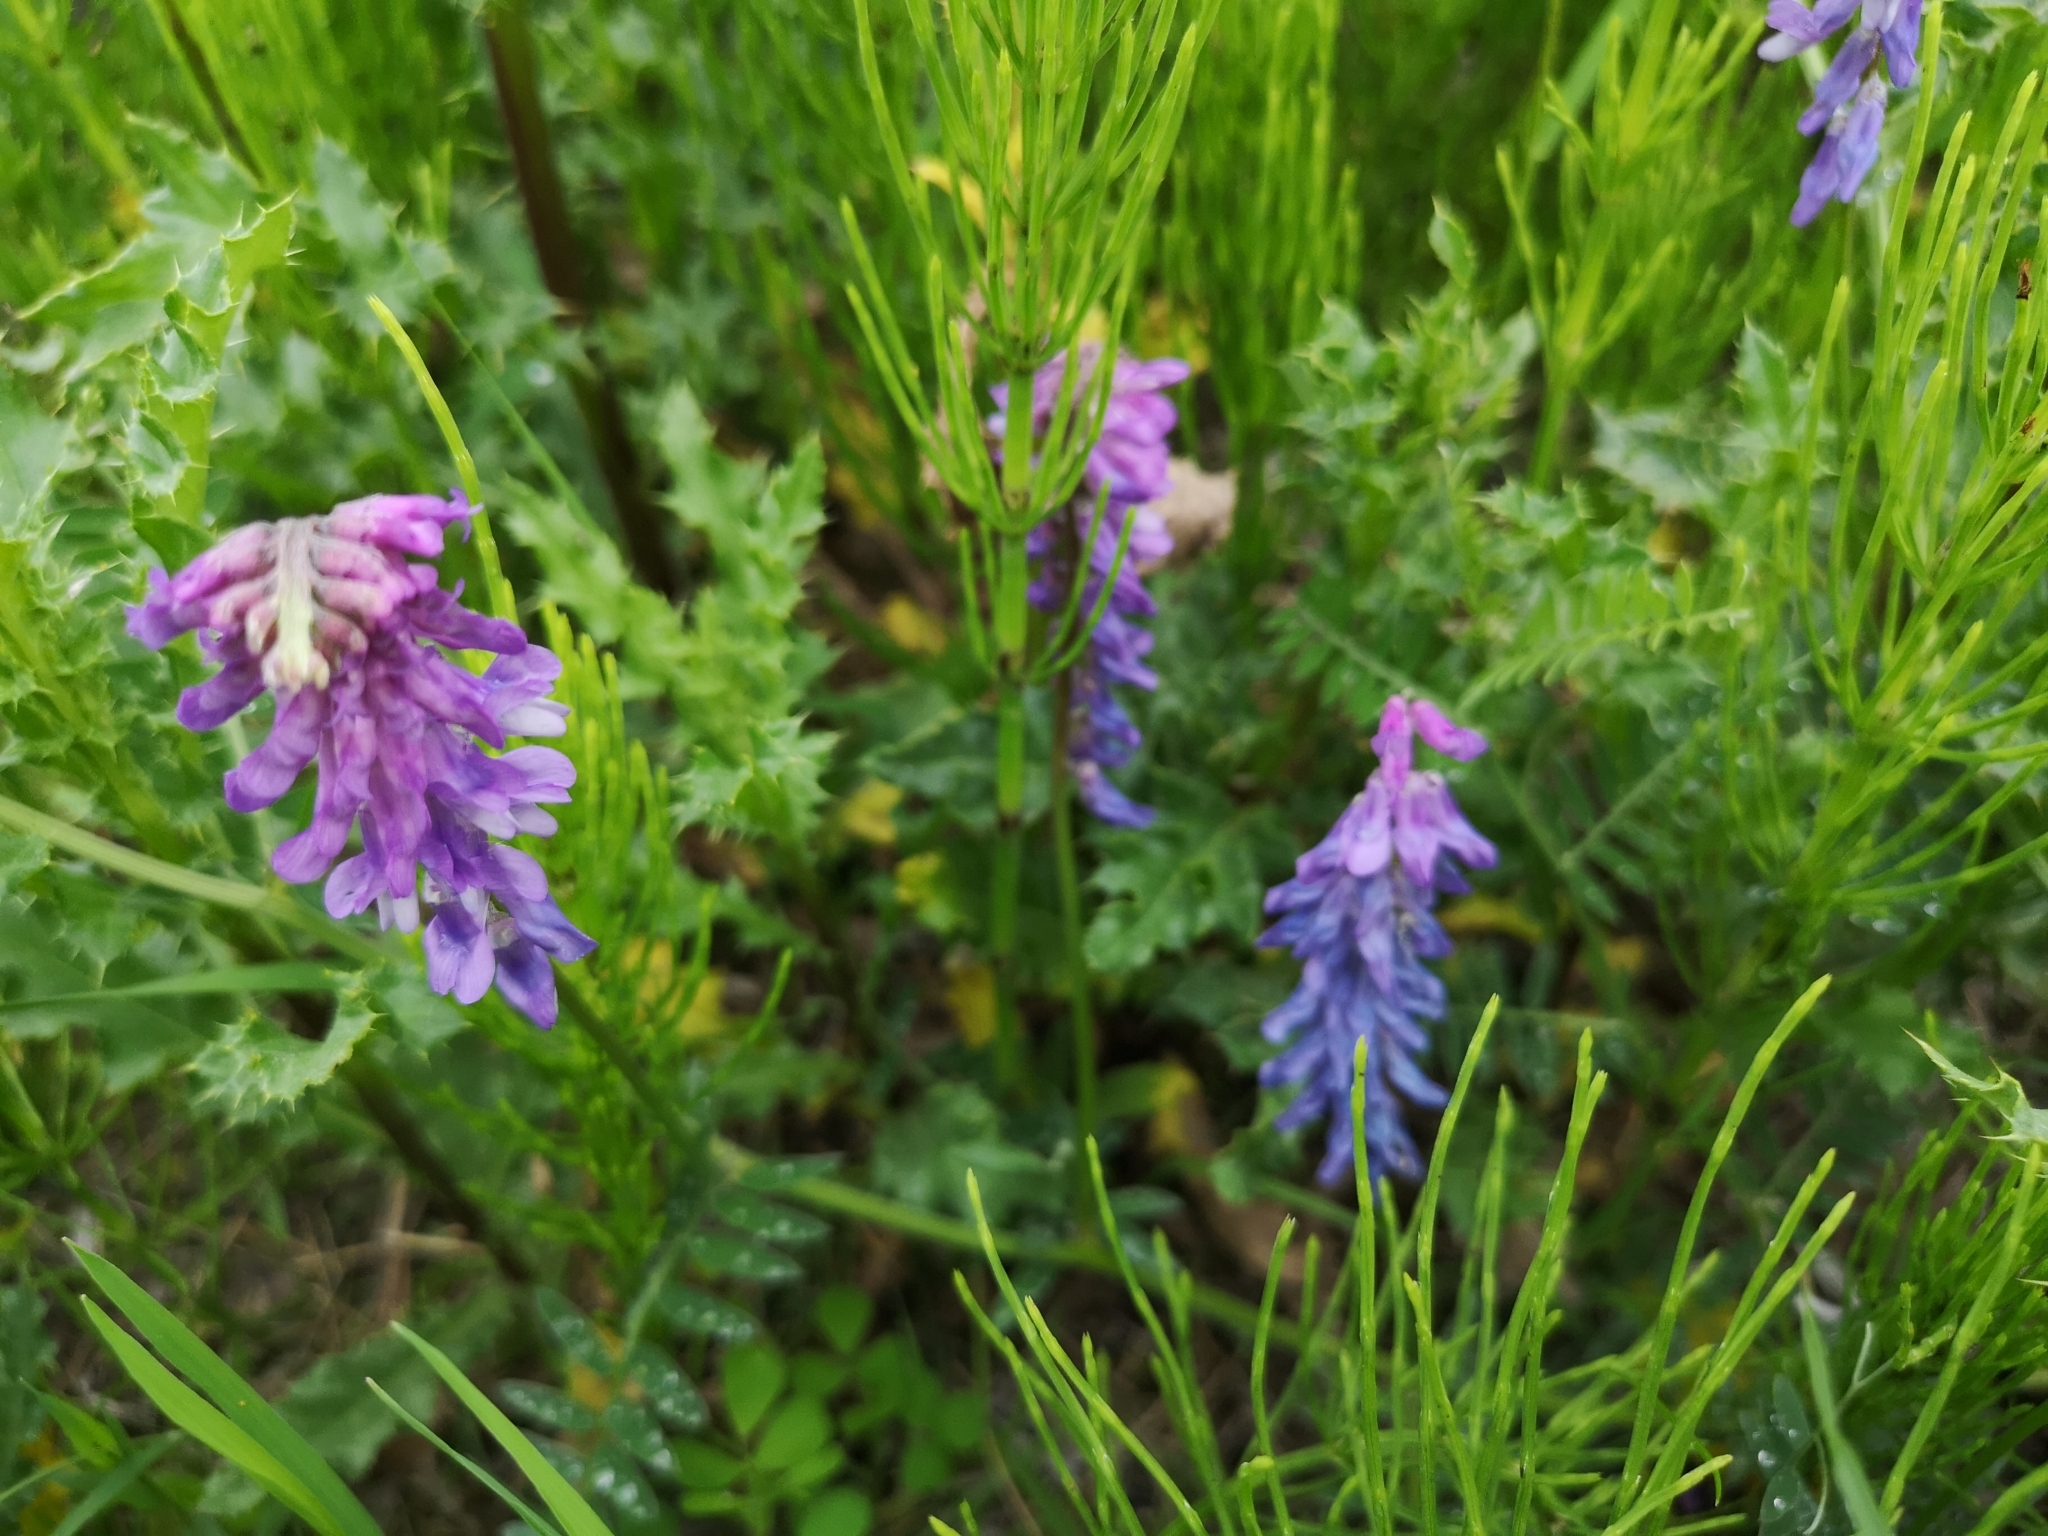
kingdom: Plantae
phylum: Tracheophyta
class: Magnoliopsida
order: Fabales
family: Fabaceae
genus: Vicia
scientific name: Vicia cracca
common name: Bird vetch
